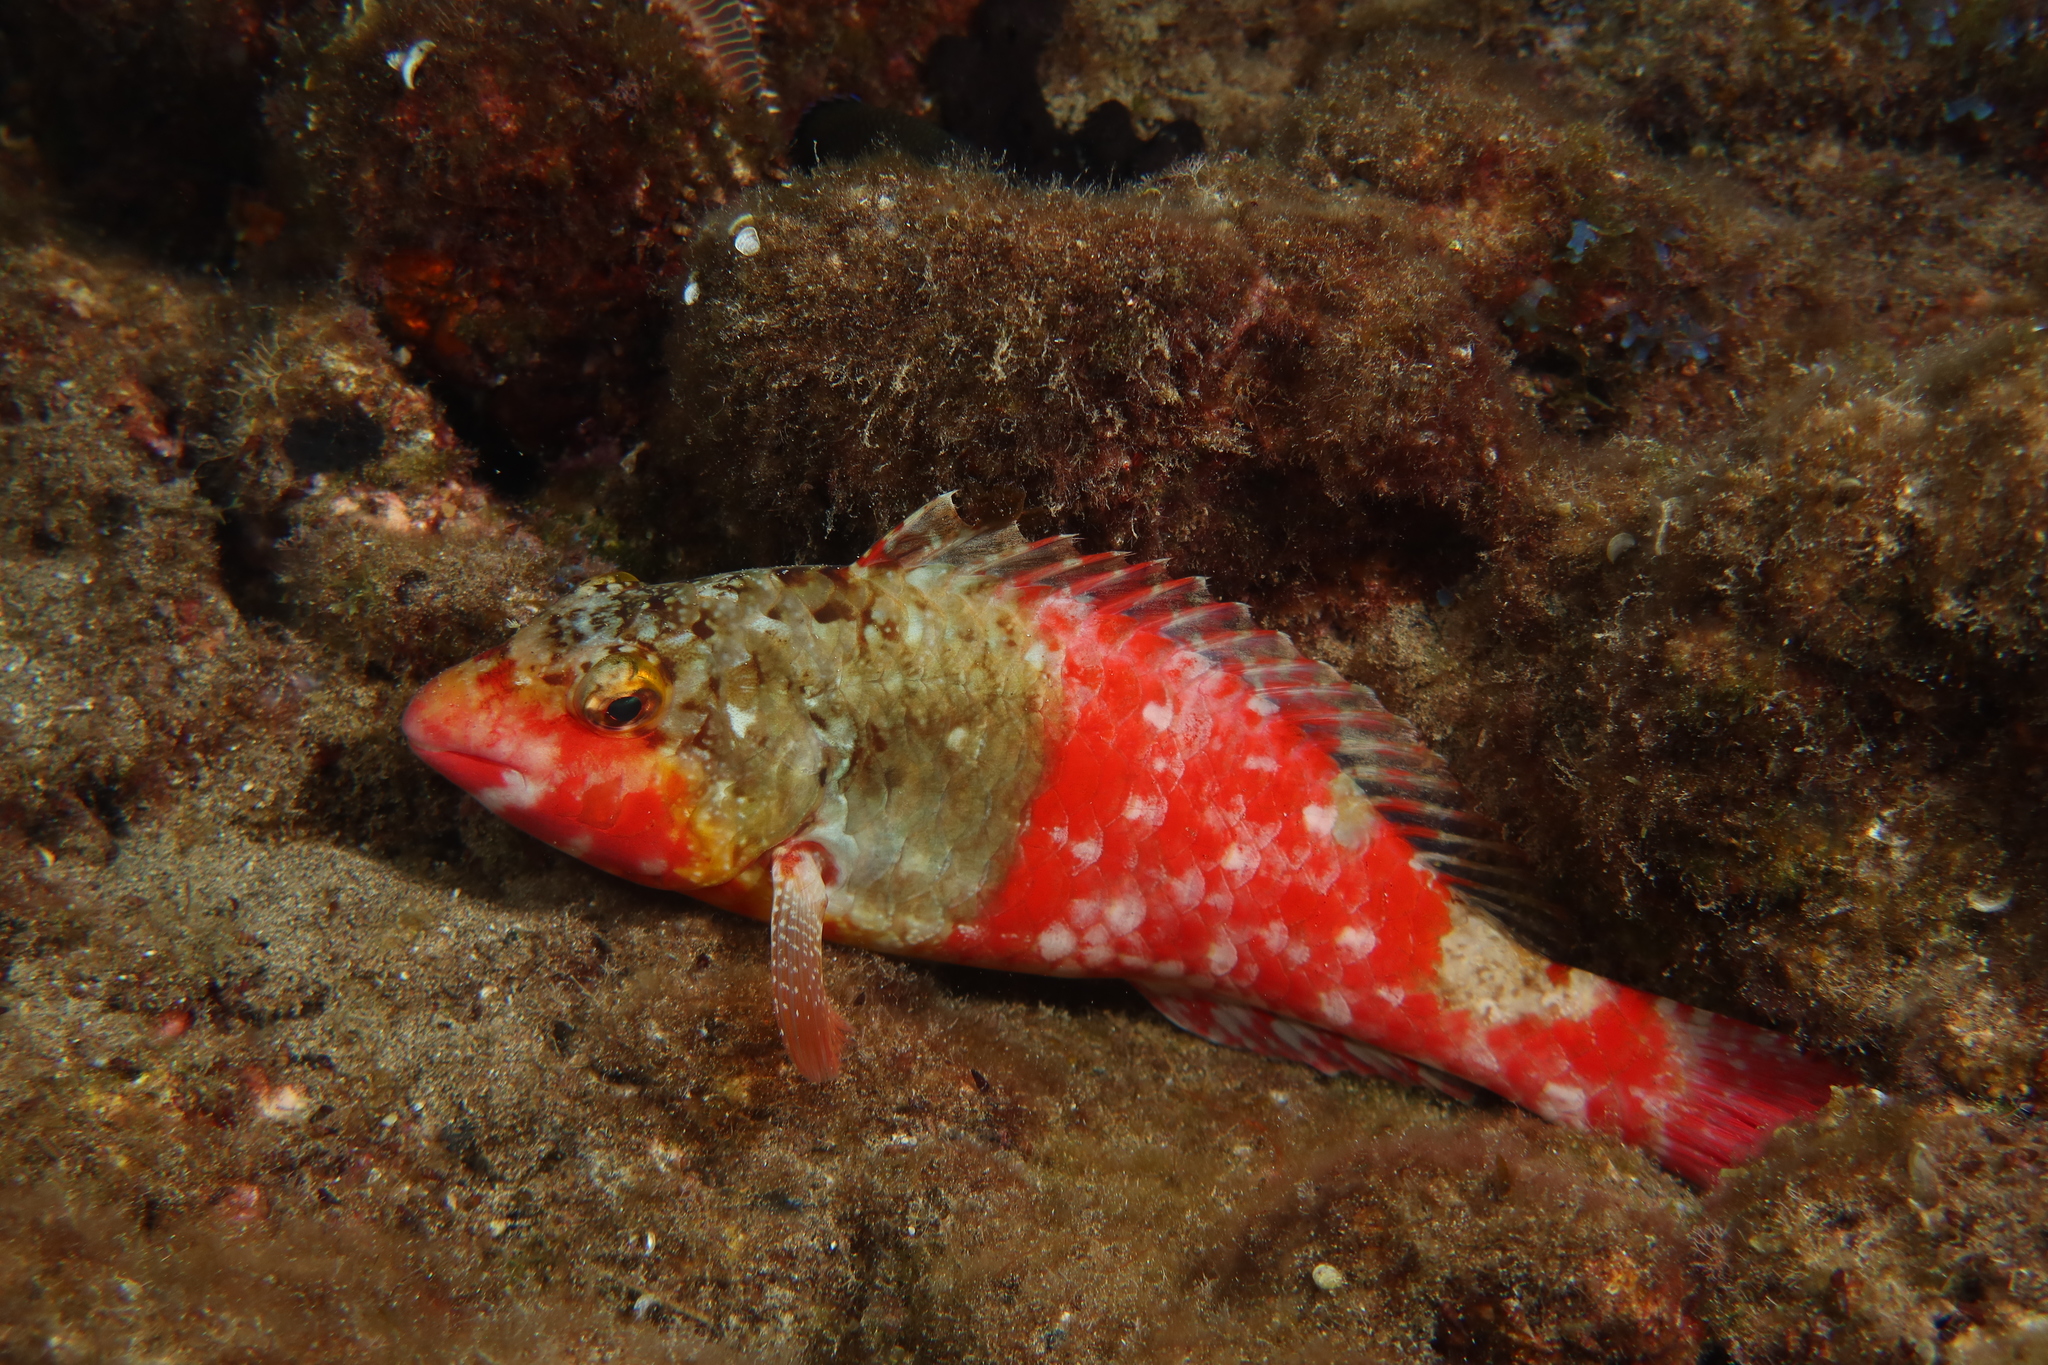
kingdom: Animalia
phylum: Chordata
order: Perciformes
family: Scaridae
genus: Sparisoma
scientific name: Sparisoma cretense
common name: Parrotfish
